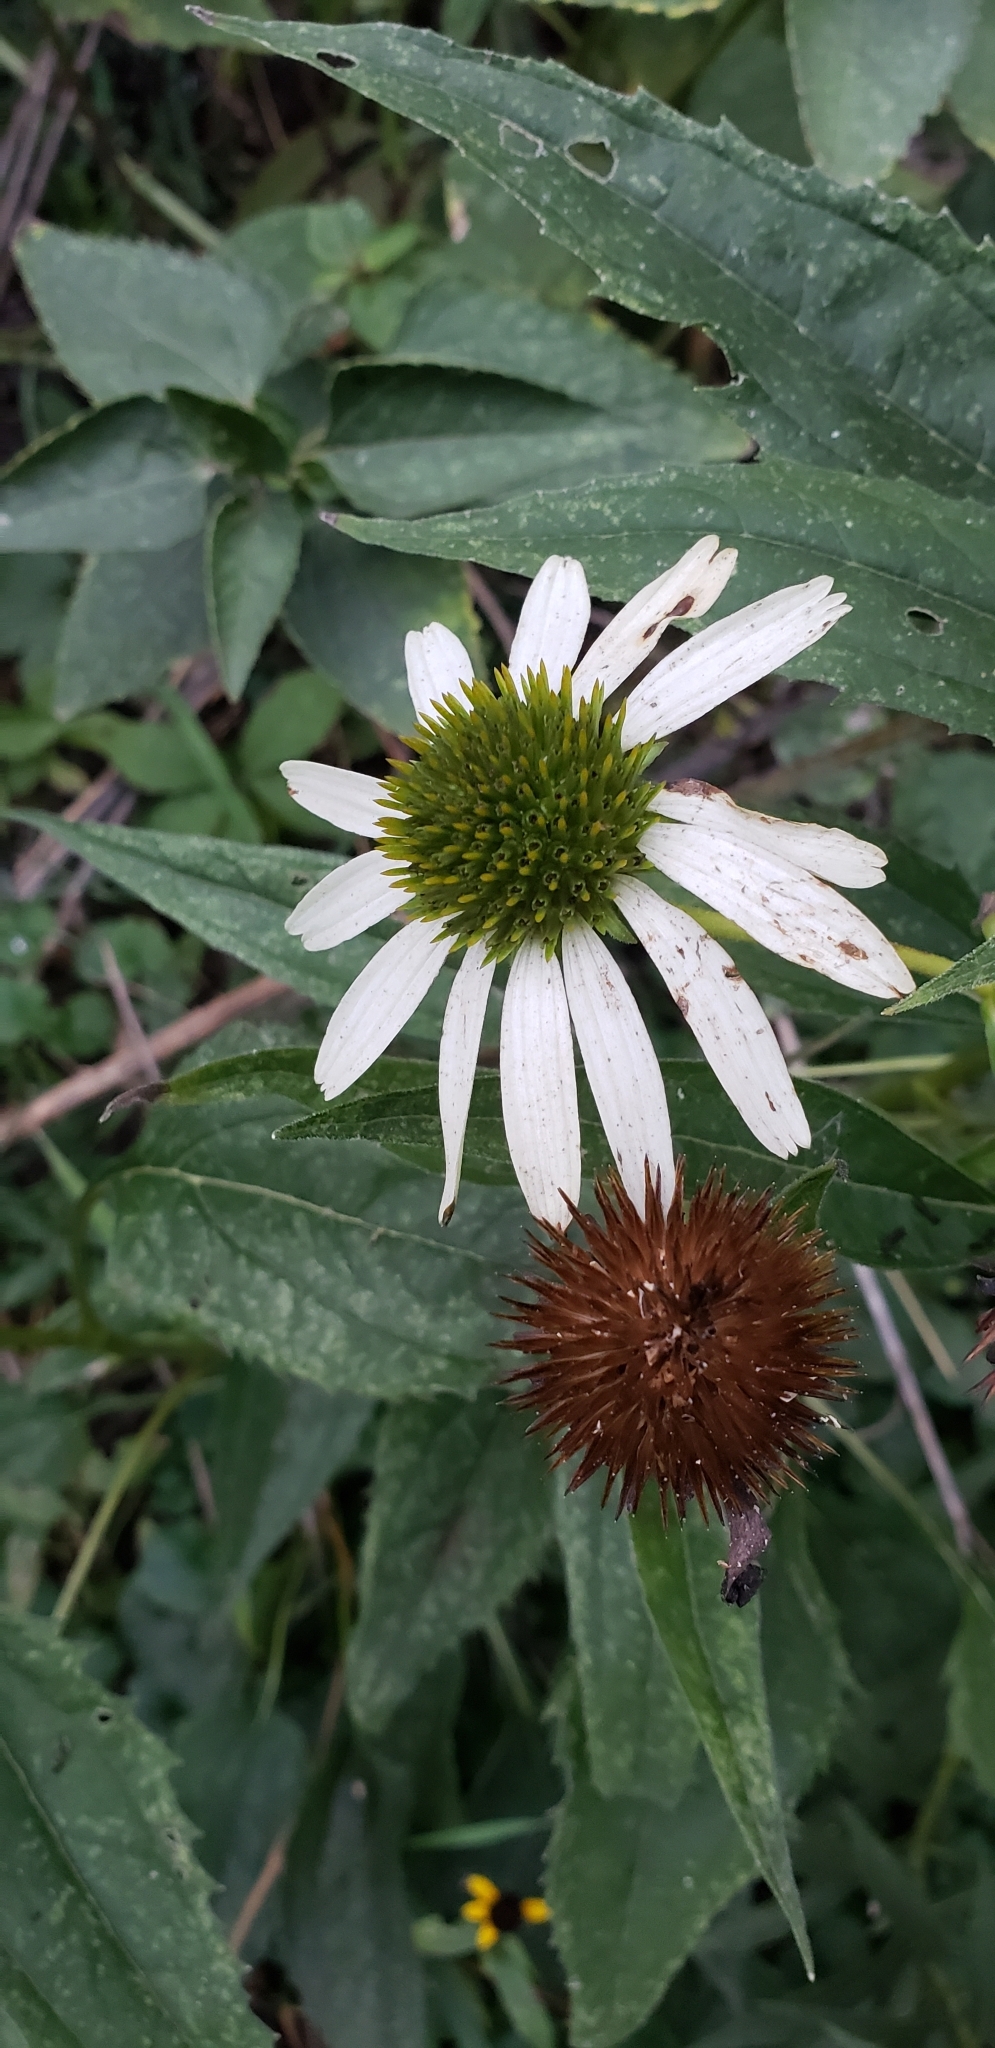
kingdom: Plantae
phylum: Tracheophyta
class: Magnoliopsida
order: Asterales
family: Asteraceae
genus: Echinacea
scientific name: Echinacea purpurea
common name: Broad-leaved purple coneflower
